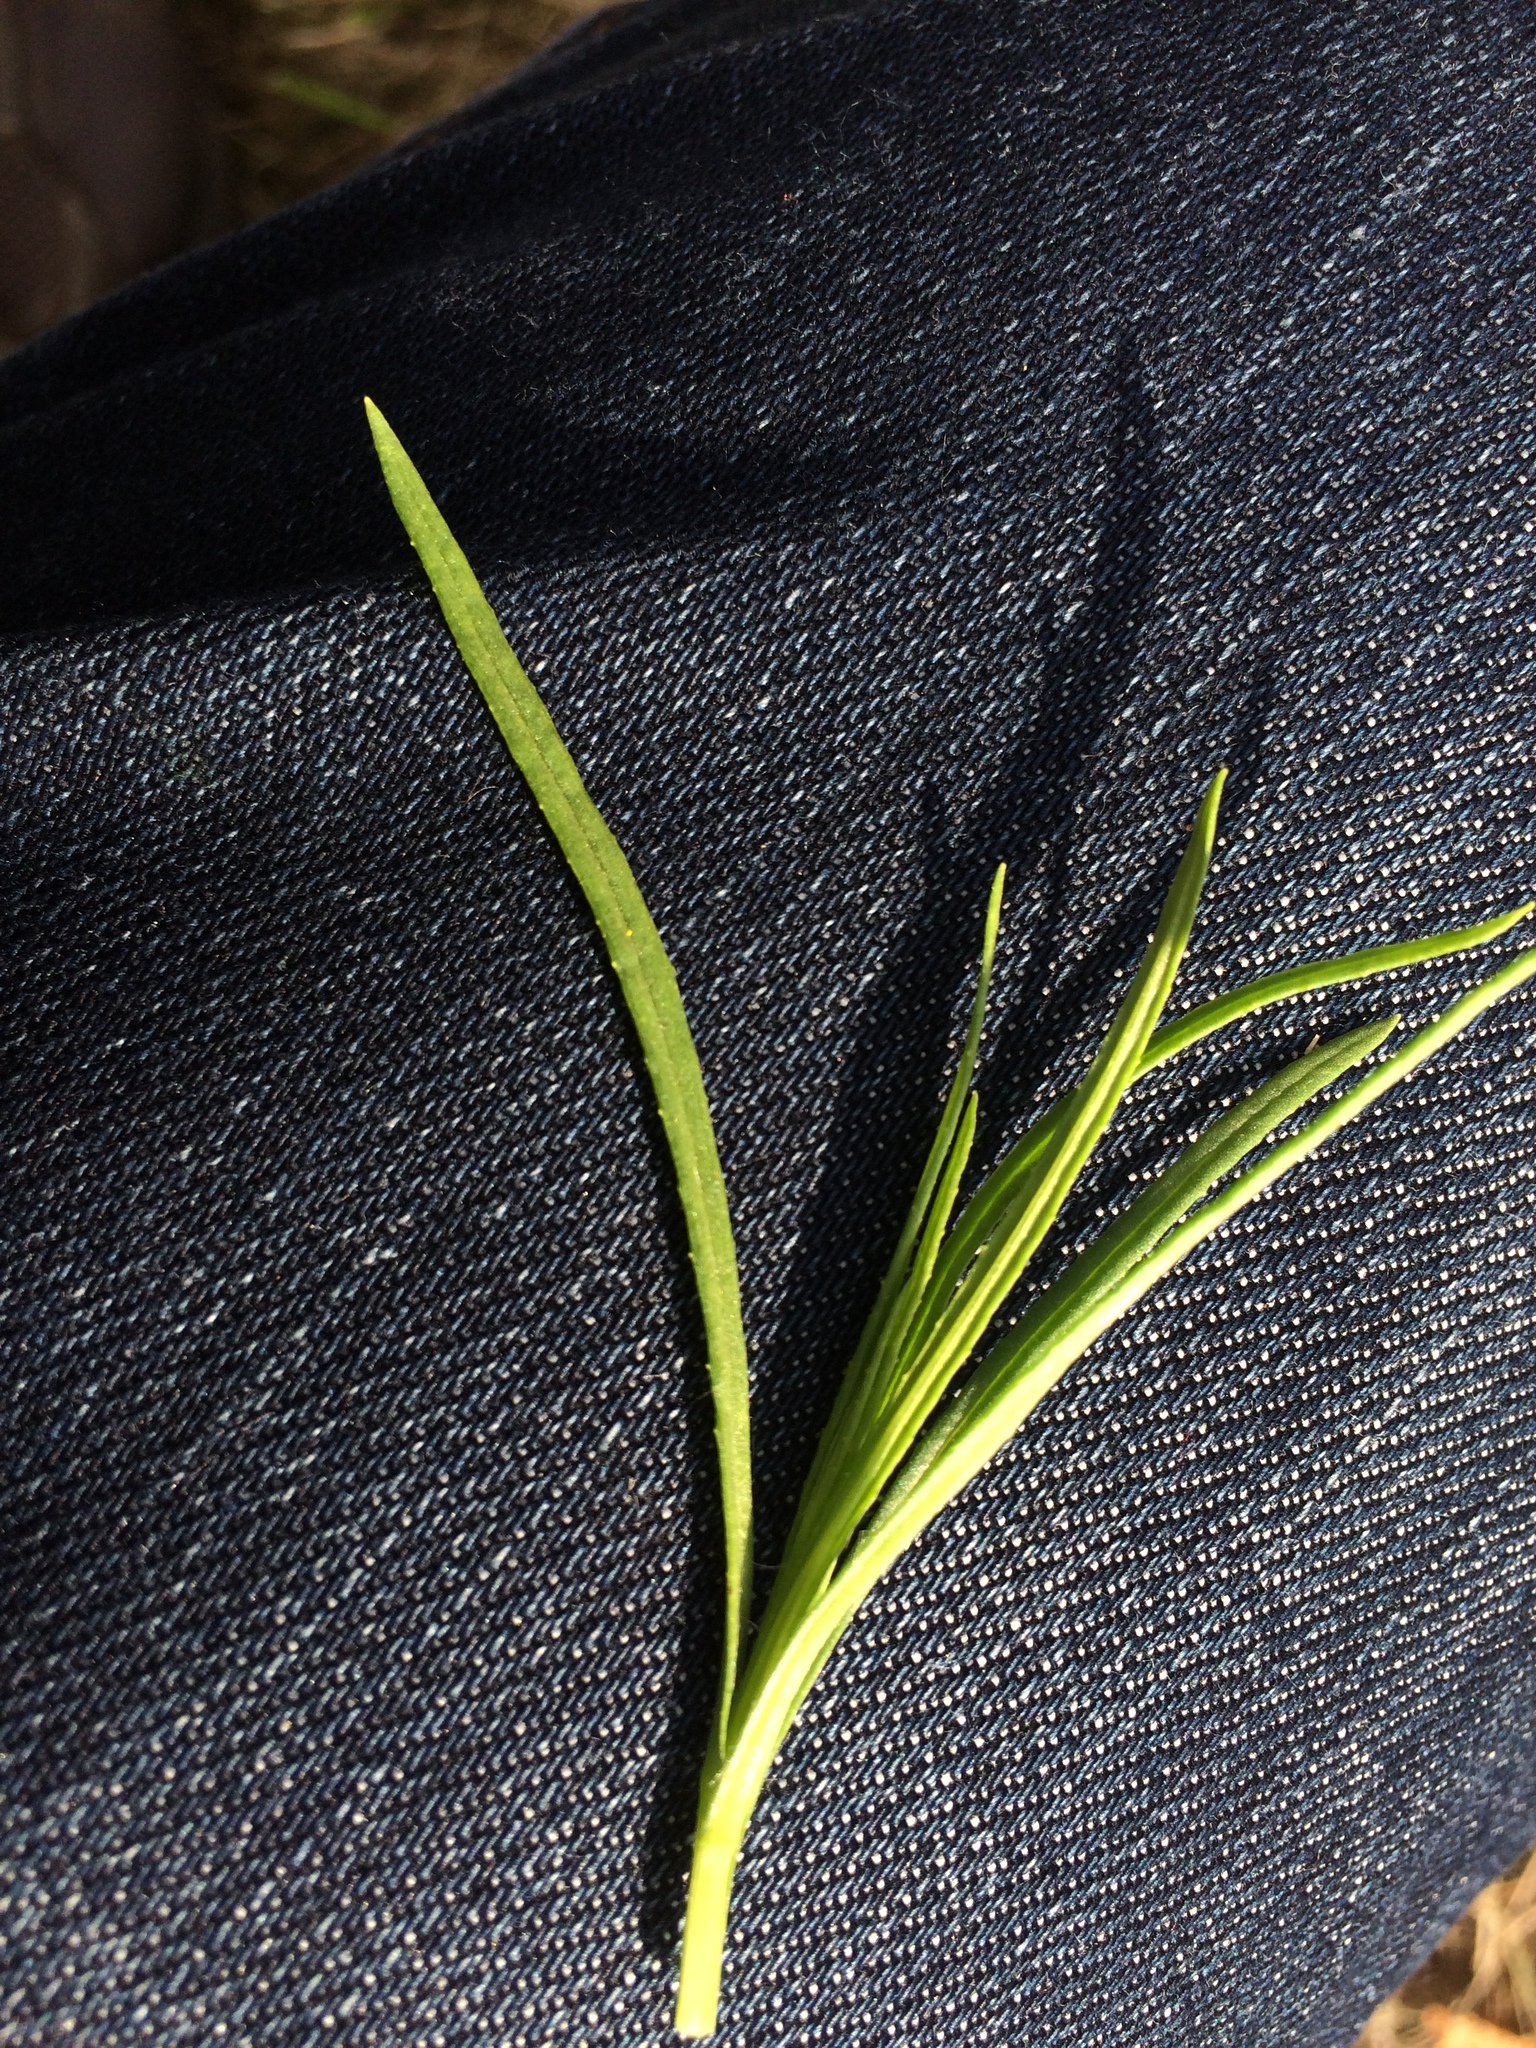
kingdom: Plantae
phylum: Tracheophyta
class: Magnoliopsida
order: Asterales
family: Asteraceae
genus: Senecio
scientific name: Senecio inaequidens
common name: Narrow-leaved ragwort
